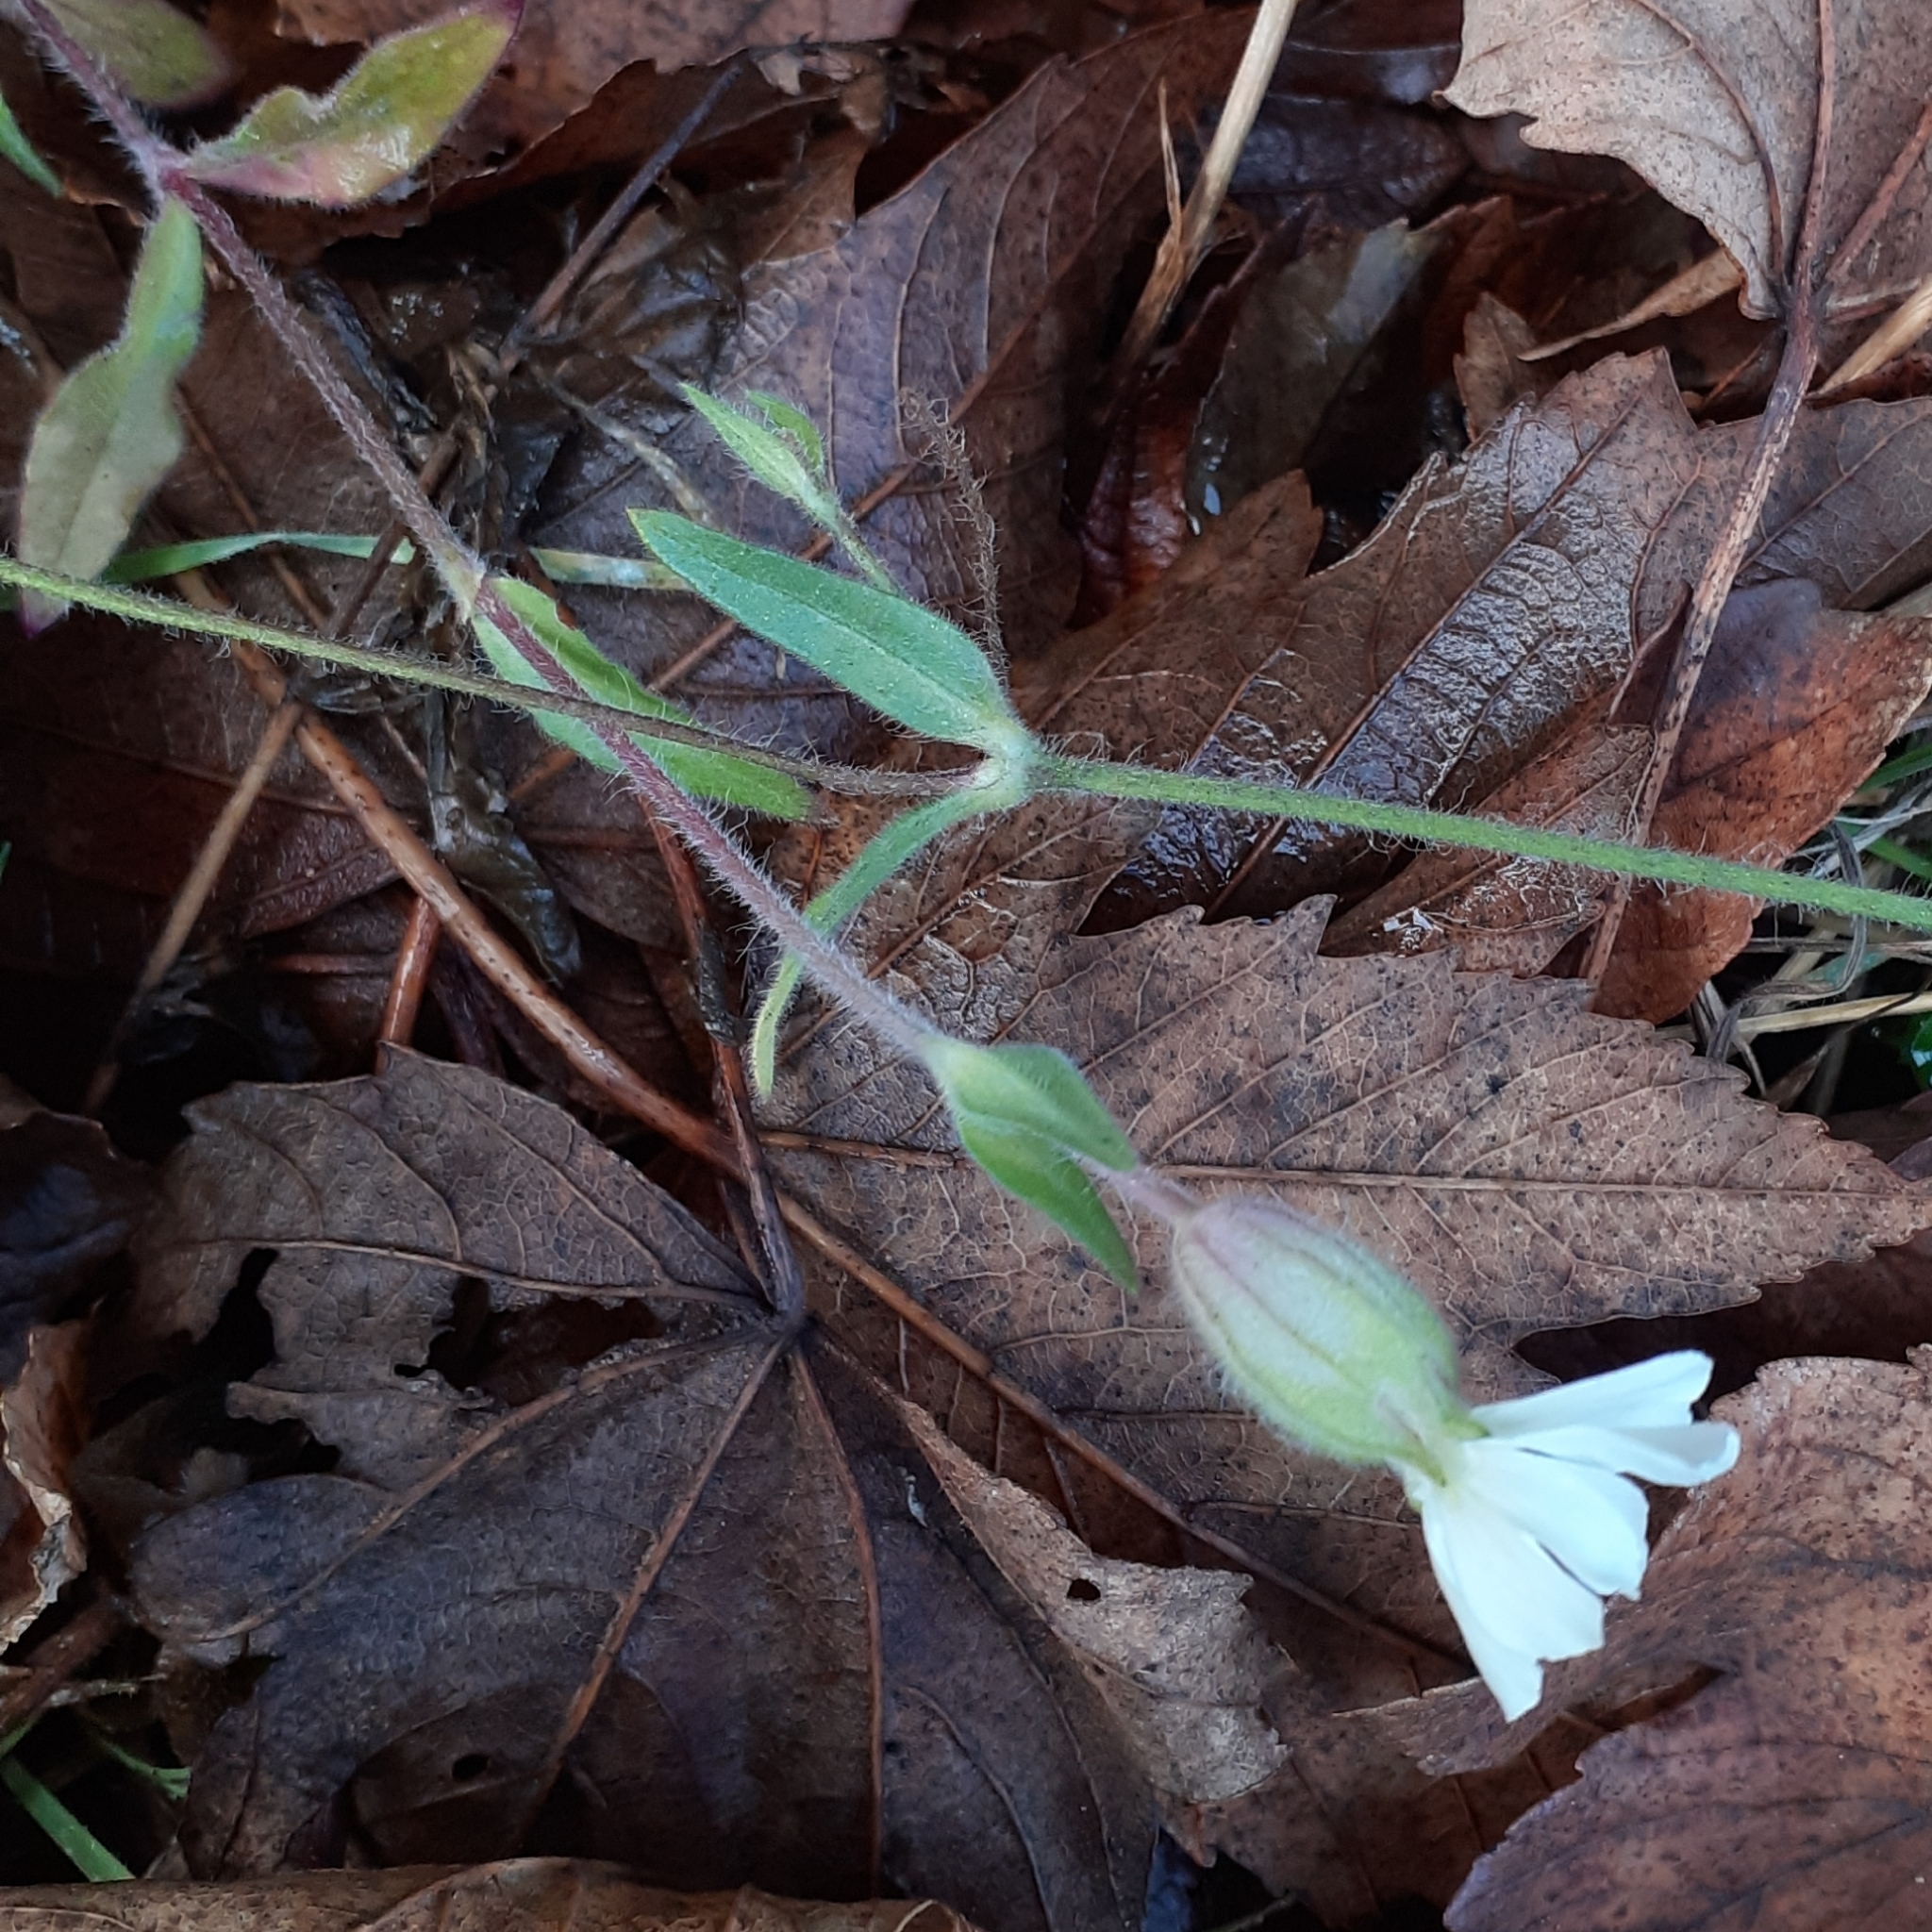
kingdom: Plantae
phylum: Tracheophyta
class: Magnoliopsida
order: Caryophyllales
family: Caryophyllaceae
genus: Silene
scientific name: Silene latifolia
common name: White campion
